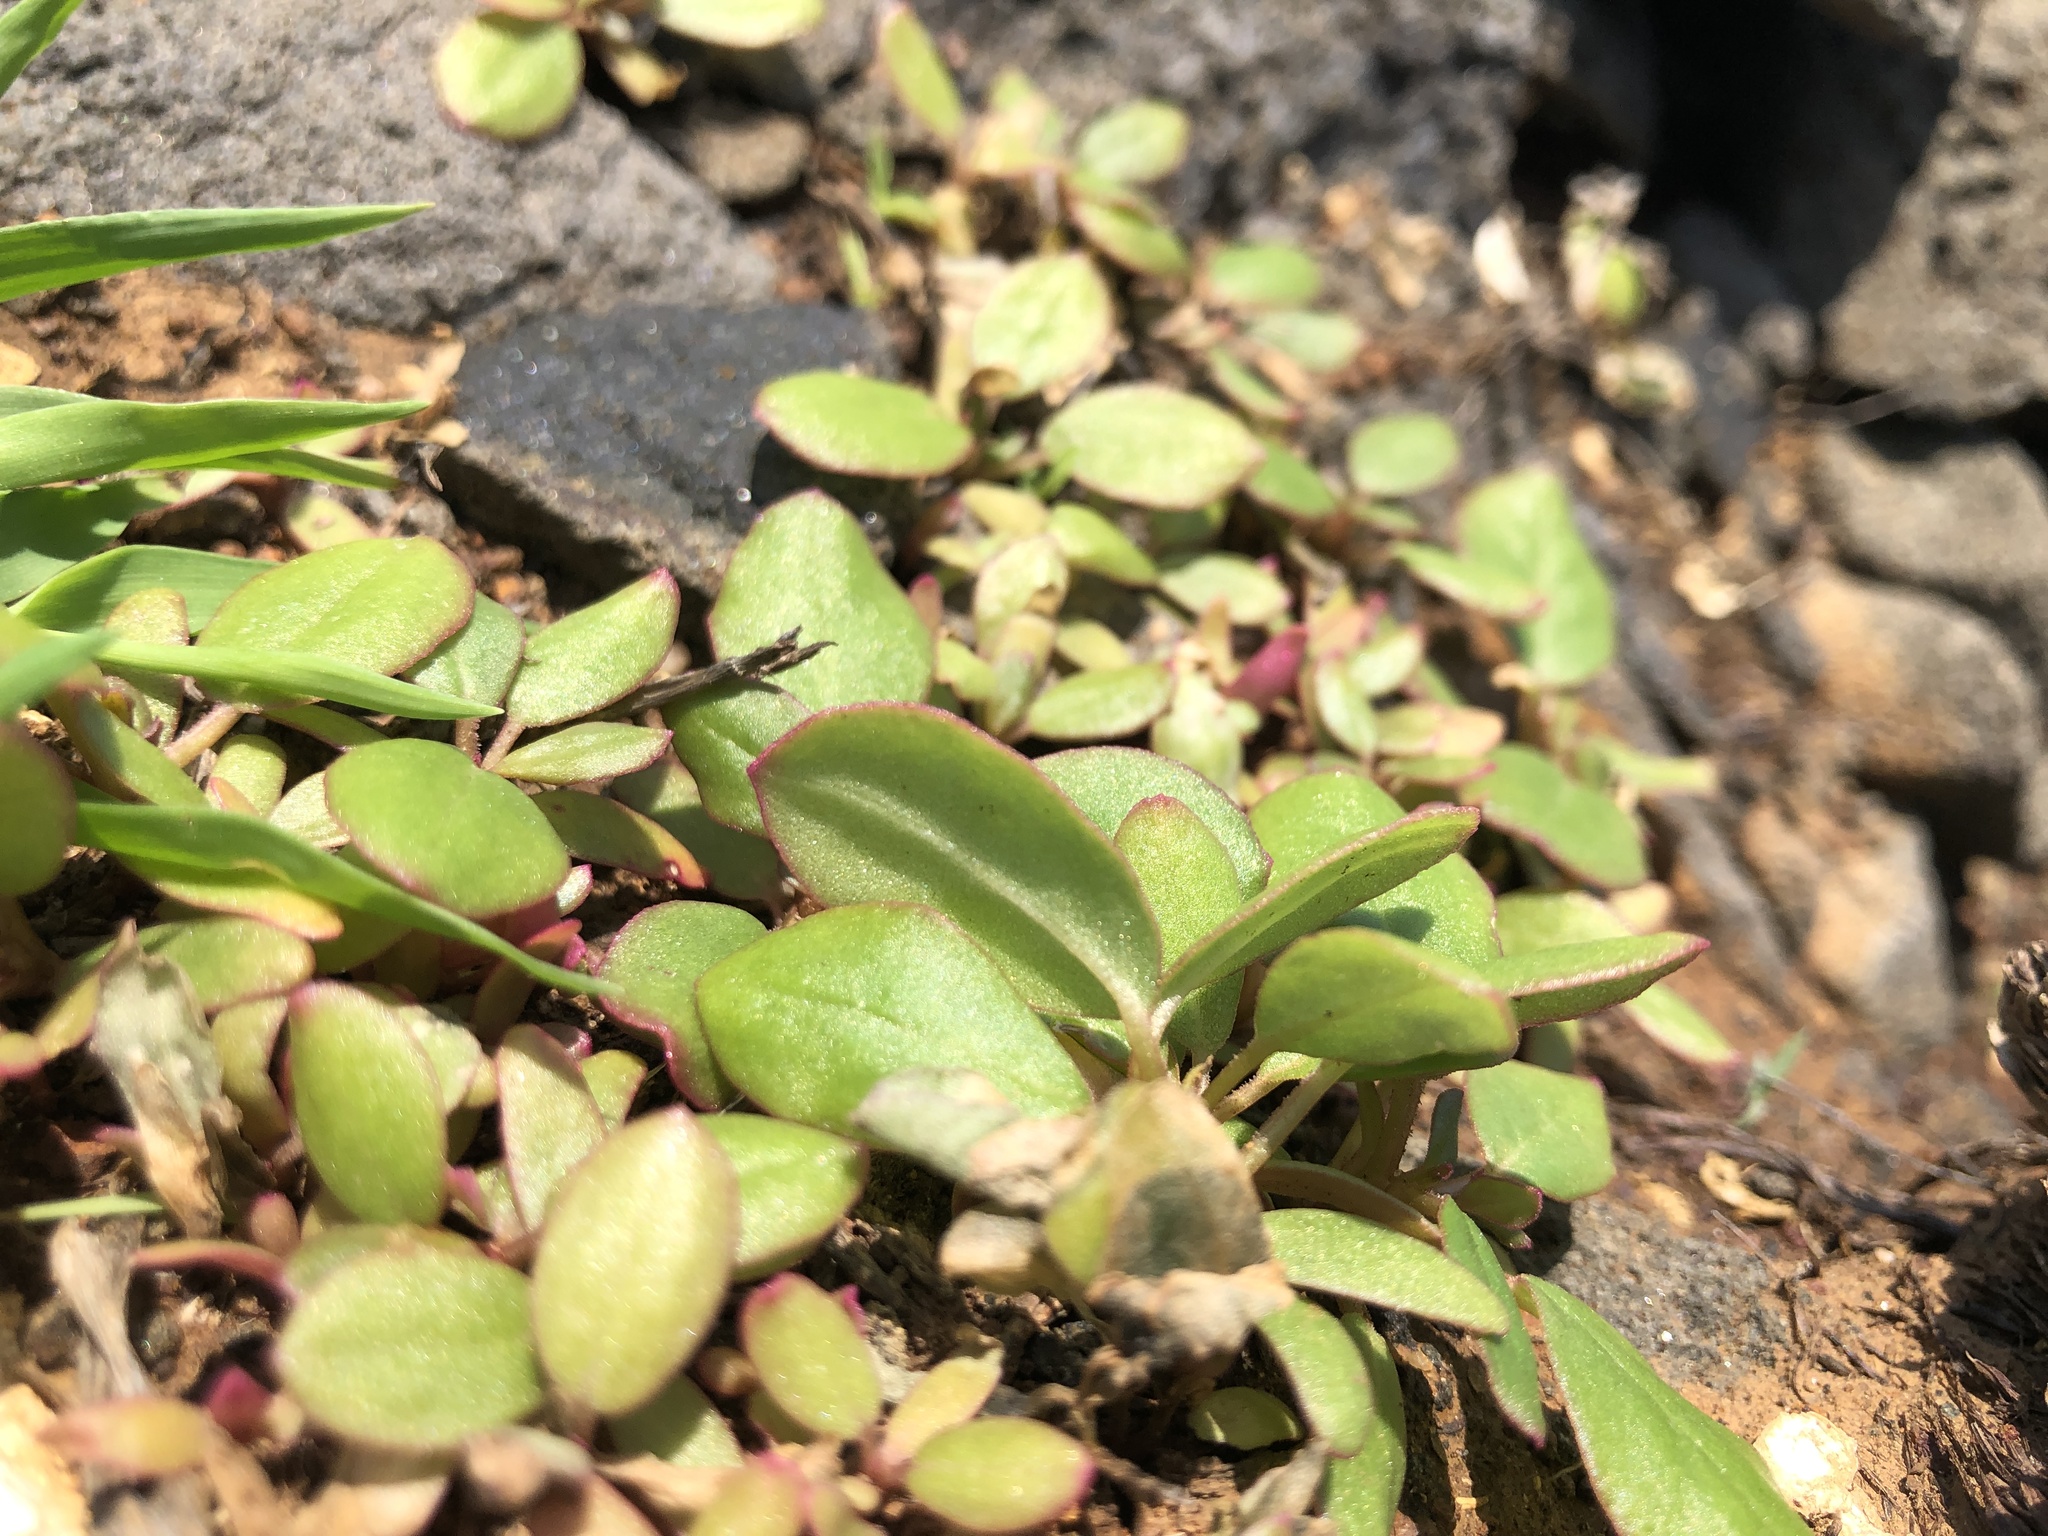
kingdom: Plantae
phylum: Tracheophyta
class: Magnoliopsida
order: Caryophyllales
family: Aizoaceae
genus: Trianthema
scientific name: Trianthema portulacastrum
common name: Desert horsepurslane
